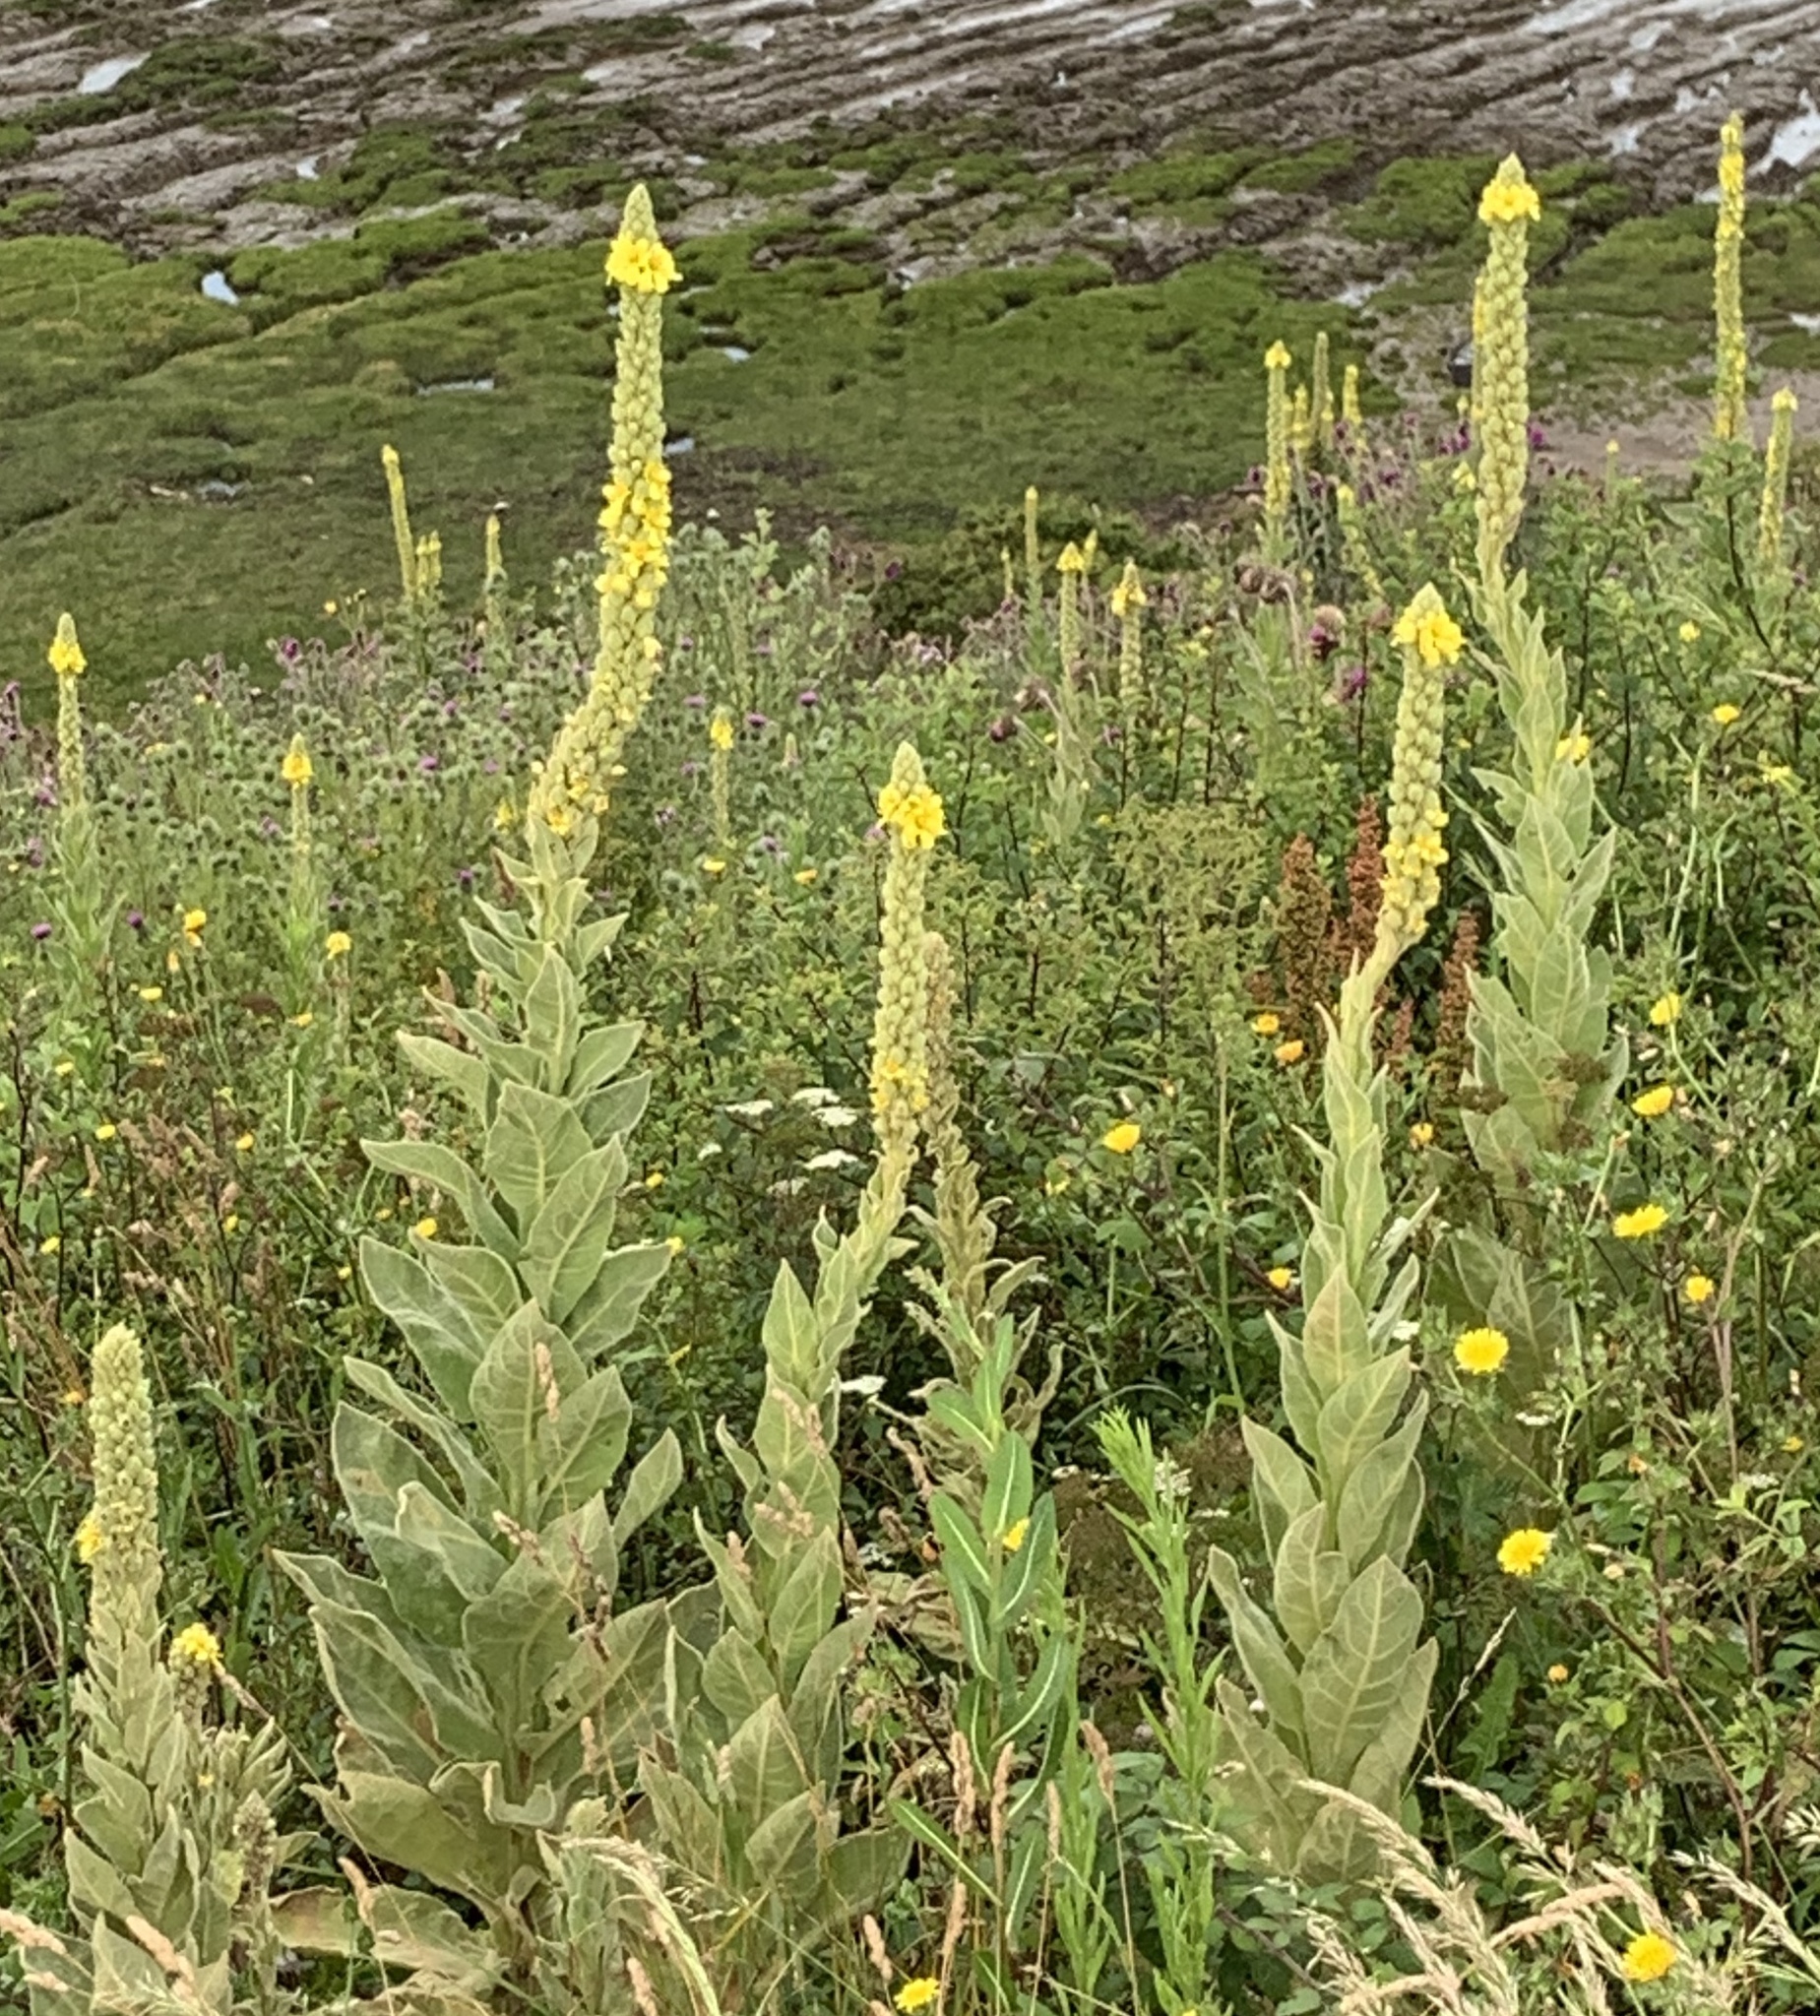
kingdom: Plantae
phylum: Tracheophyta
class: Magnoliopsida
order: Lamiales
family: Scrophulariaceae
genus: Verbascum
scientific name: Verbascum thapsus
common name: Common mullein
